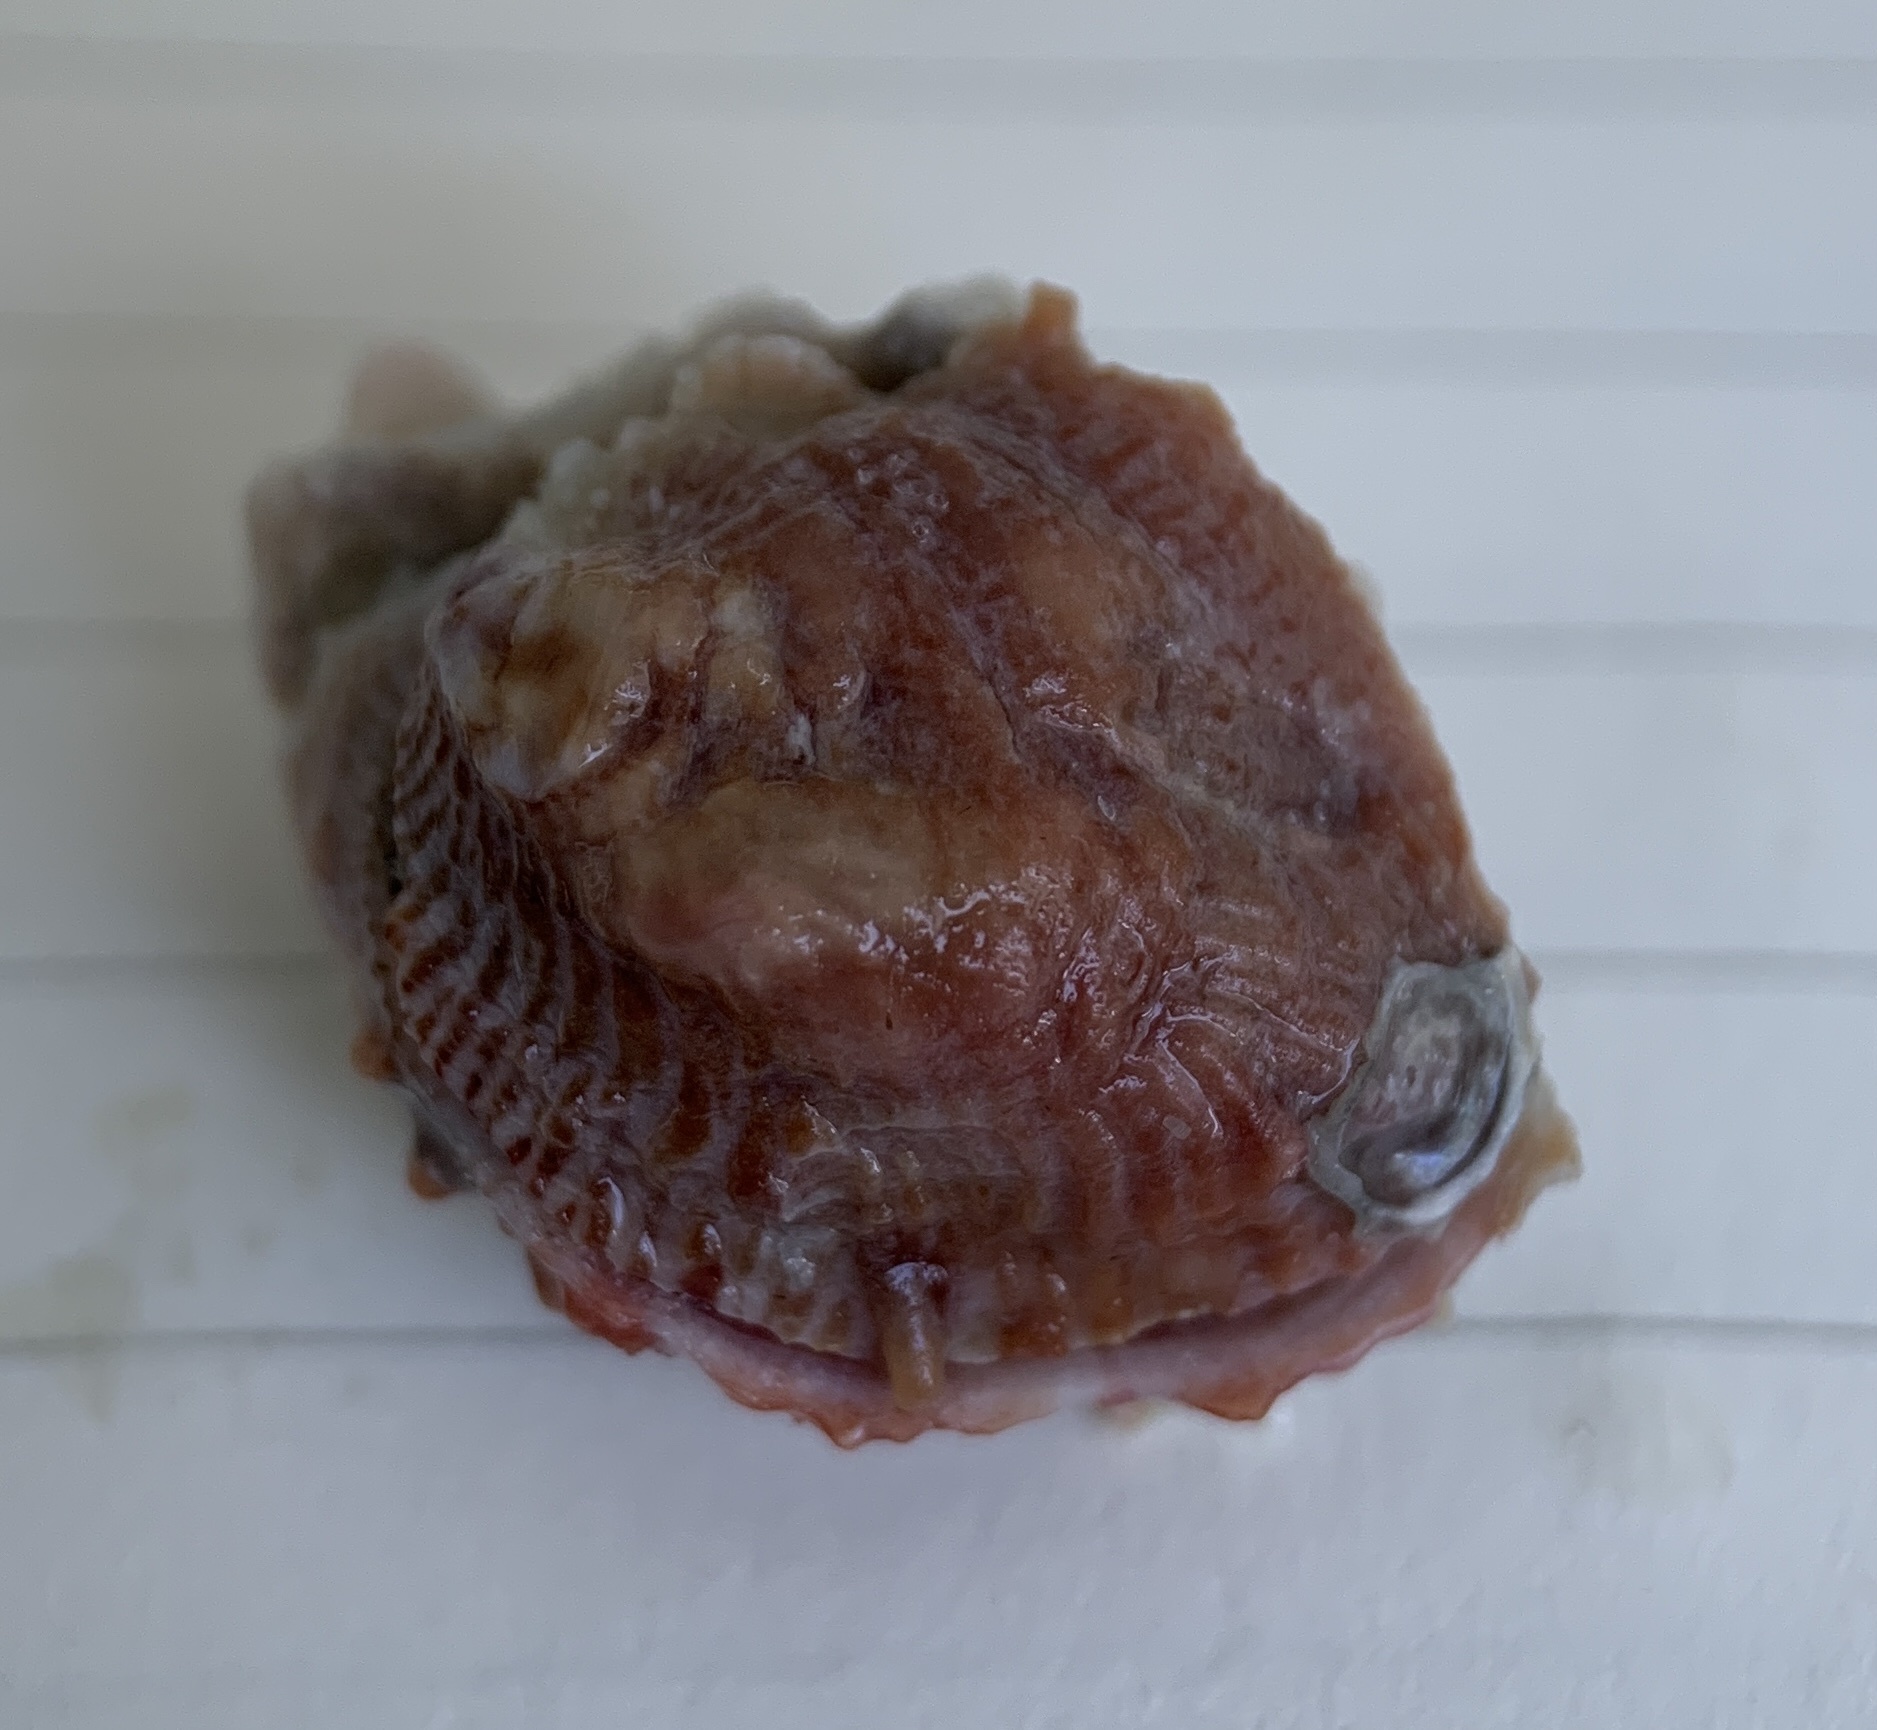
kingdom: Animalia
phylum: Mollusca
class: Bivalvia
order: Venerida
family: Chamidae
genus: Chama
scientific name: Chama congregata
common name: Corrugate jewelbox
